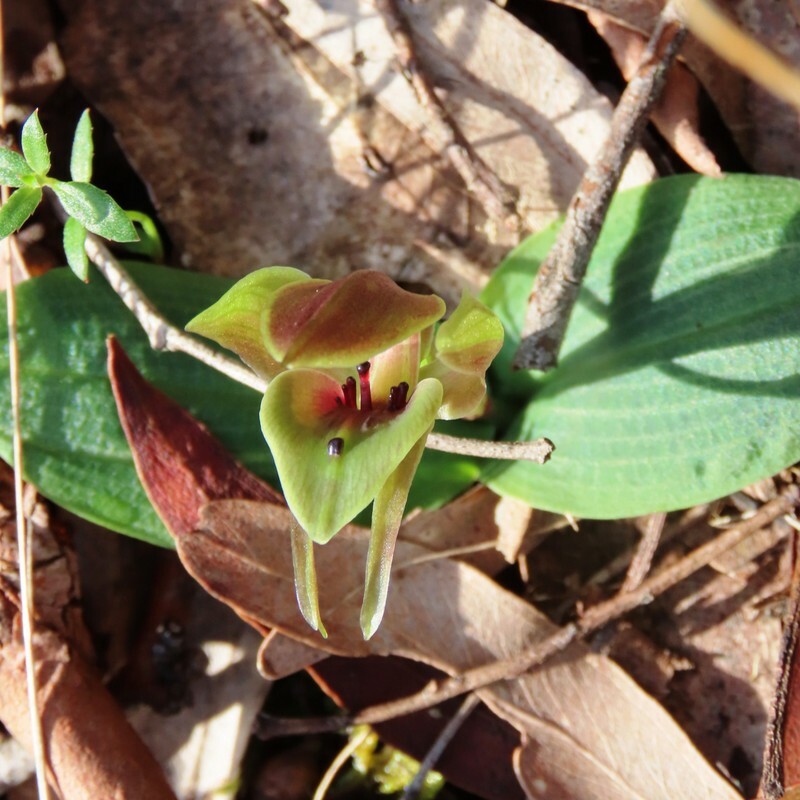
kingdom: Plantae
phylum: Tracheophyta
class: Liliopsida
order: Asparagales
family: Orchidaceae
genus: Chiloglottis
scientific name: Chiloglottis valida
